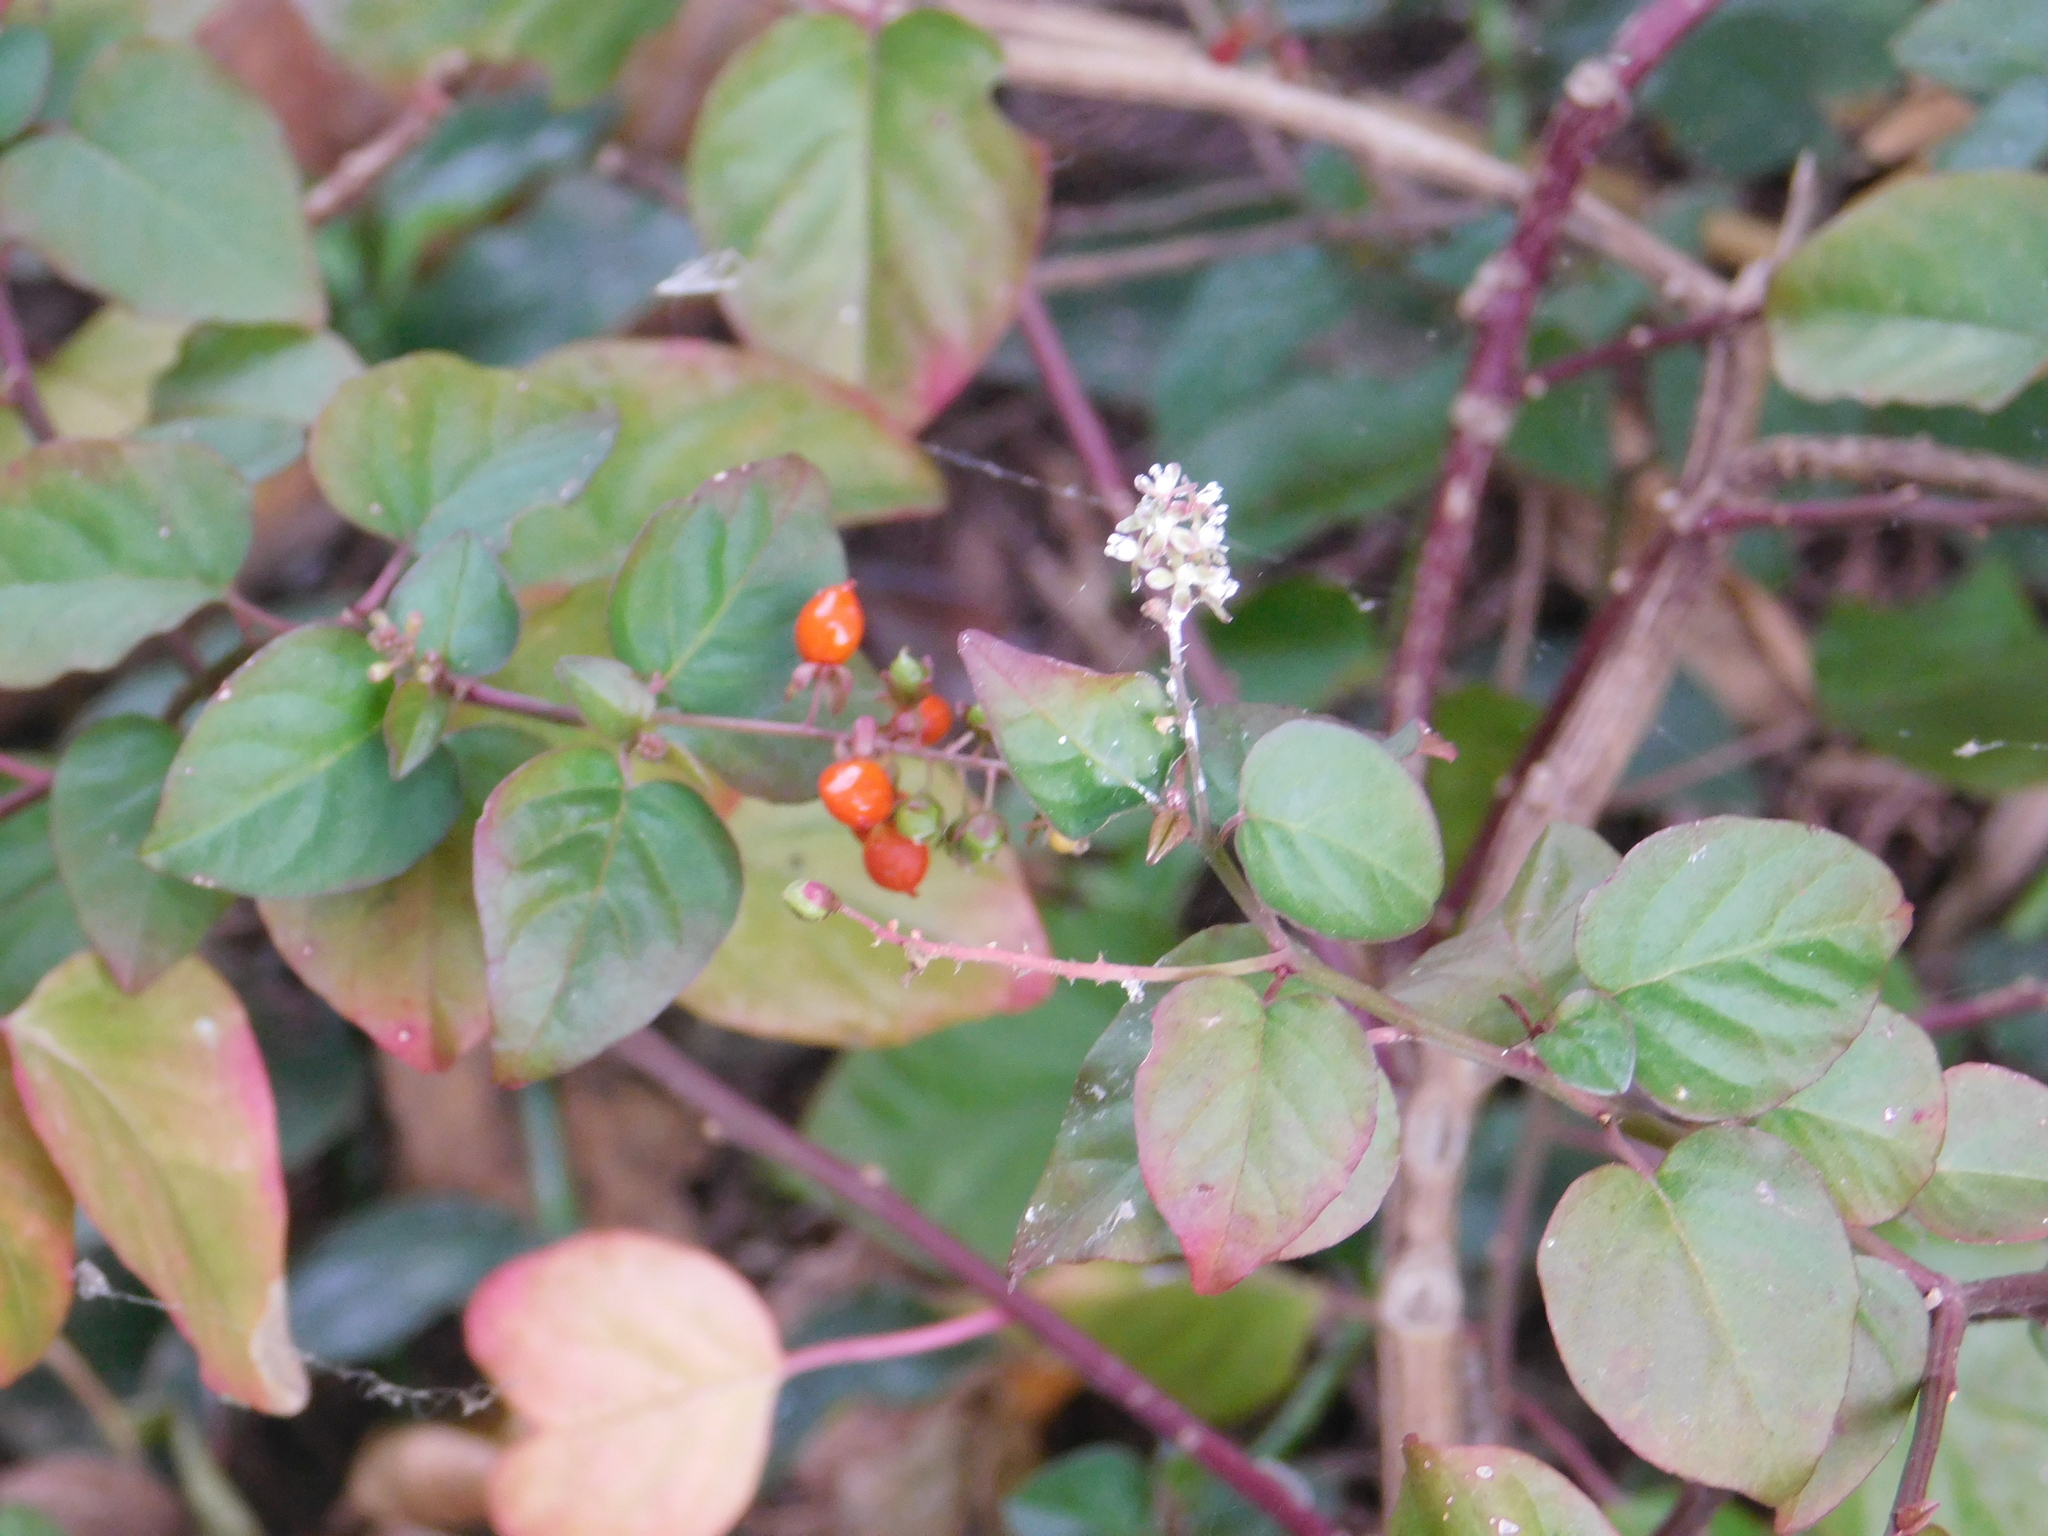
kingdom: Plantae
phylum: Tracheophyta
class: Magnoliopsida
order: Caryophyllales
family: Phytolaccaceae
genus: Rivina
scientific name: Rivina humilis
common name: Rougeplant
